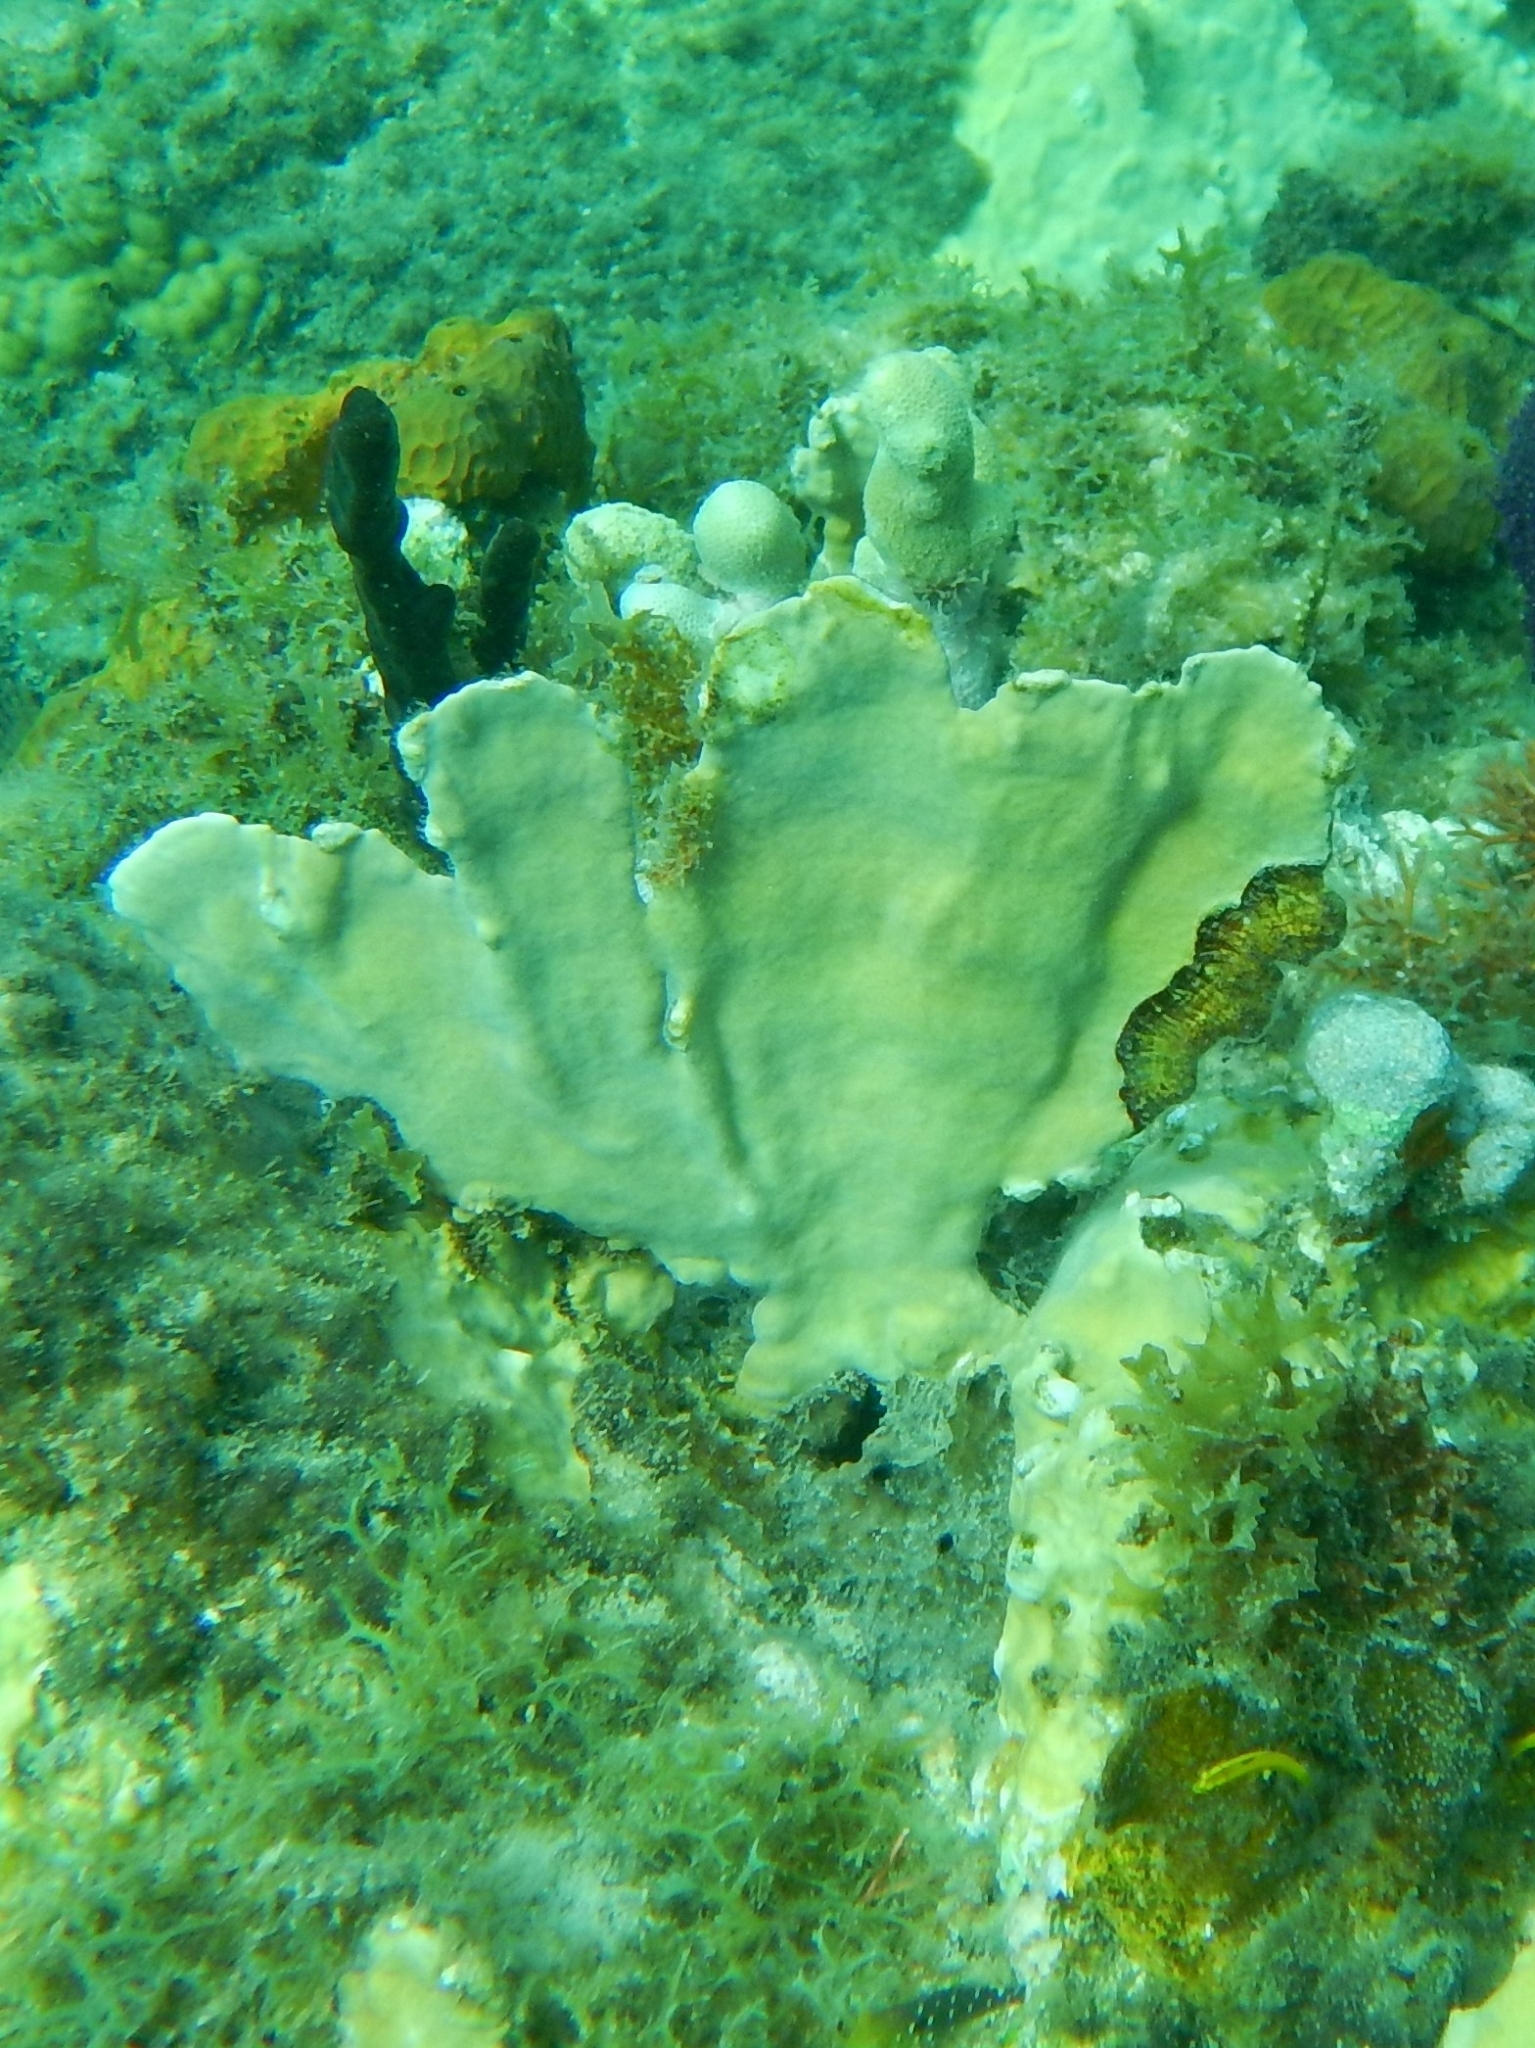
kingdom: Animalia
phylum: Cnidaria
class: Hydrozoa
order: Anthoathecata
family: Milleporidae
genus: Millepora
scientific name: Millepora complanata
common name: Bladed fire coral
